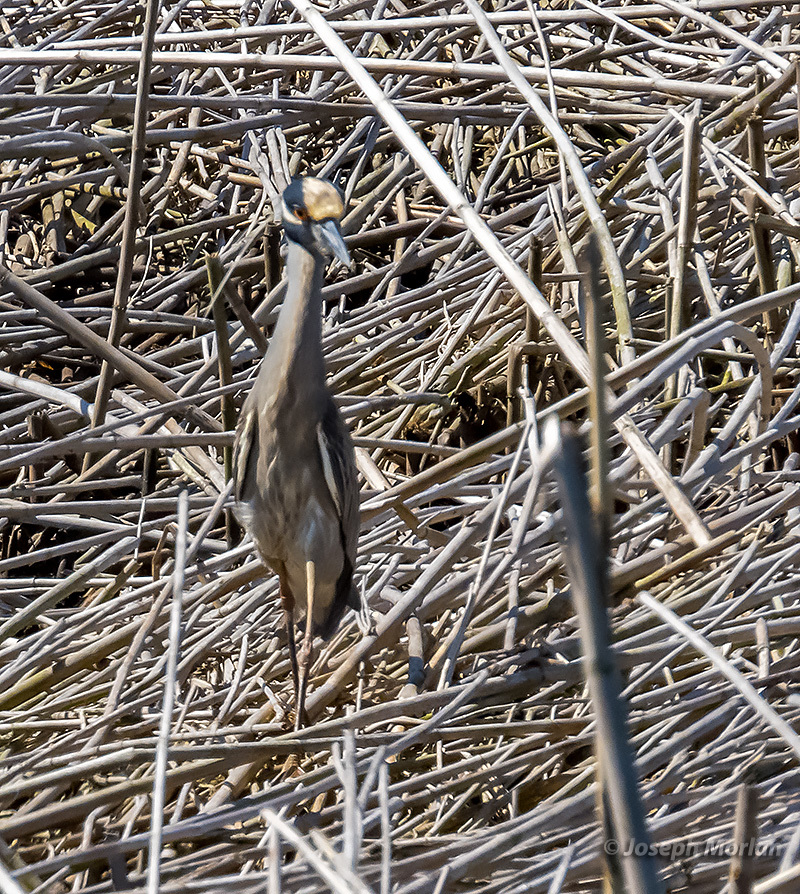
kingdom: Animalia
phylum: Chordata
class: Aves
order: Pelecaniformes
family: Ardeidae
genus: Nyctanassa
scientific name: Nyctanassa violacea
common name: Yellow-crowned night heron
